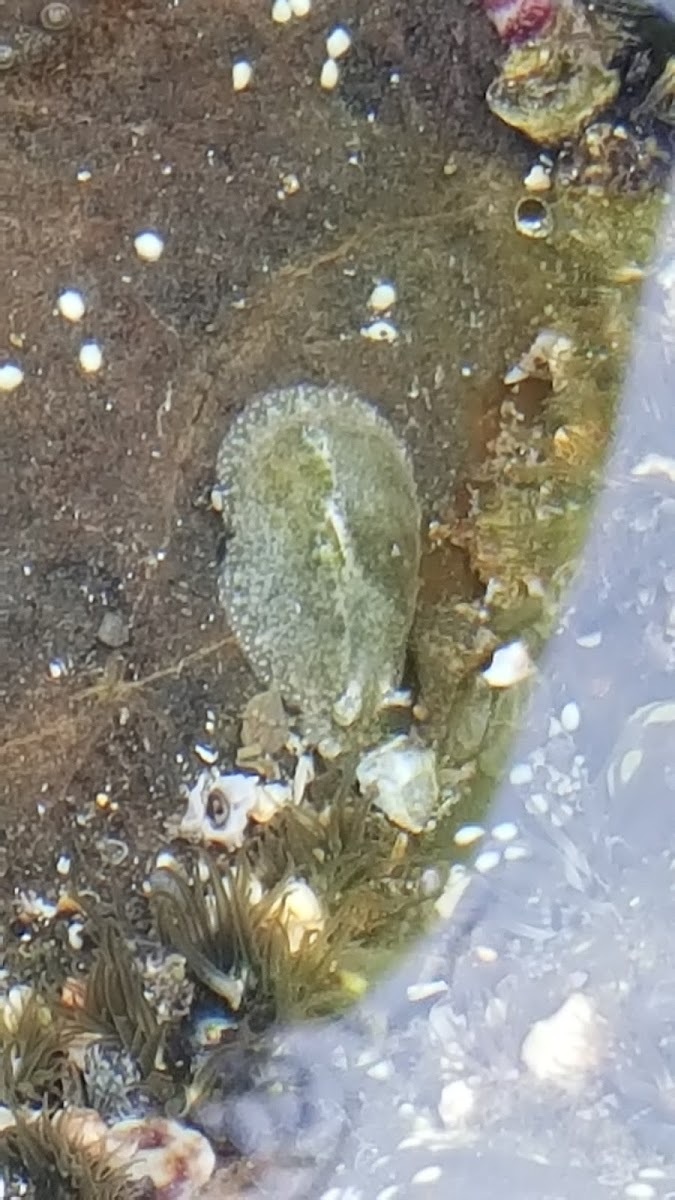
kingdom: Animalia
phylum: Mollusca
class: Gastropoda
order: Aplysiida
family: Aplysiidae
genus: Dolabrifera
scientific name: Dolabrifera nicaraguana
